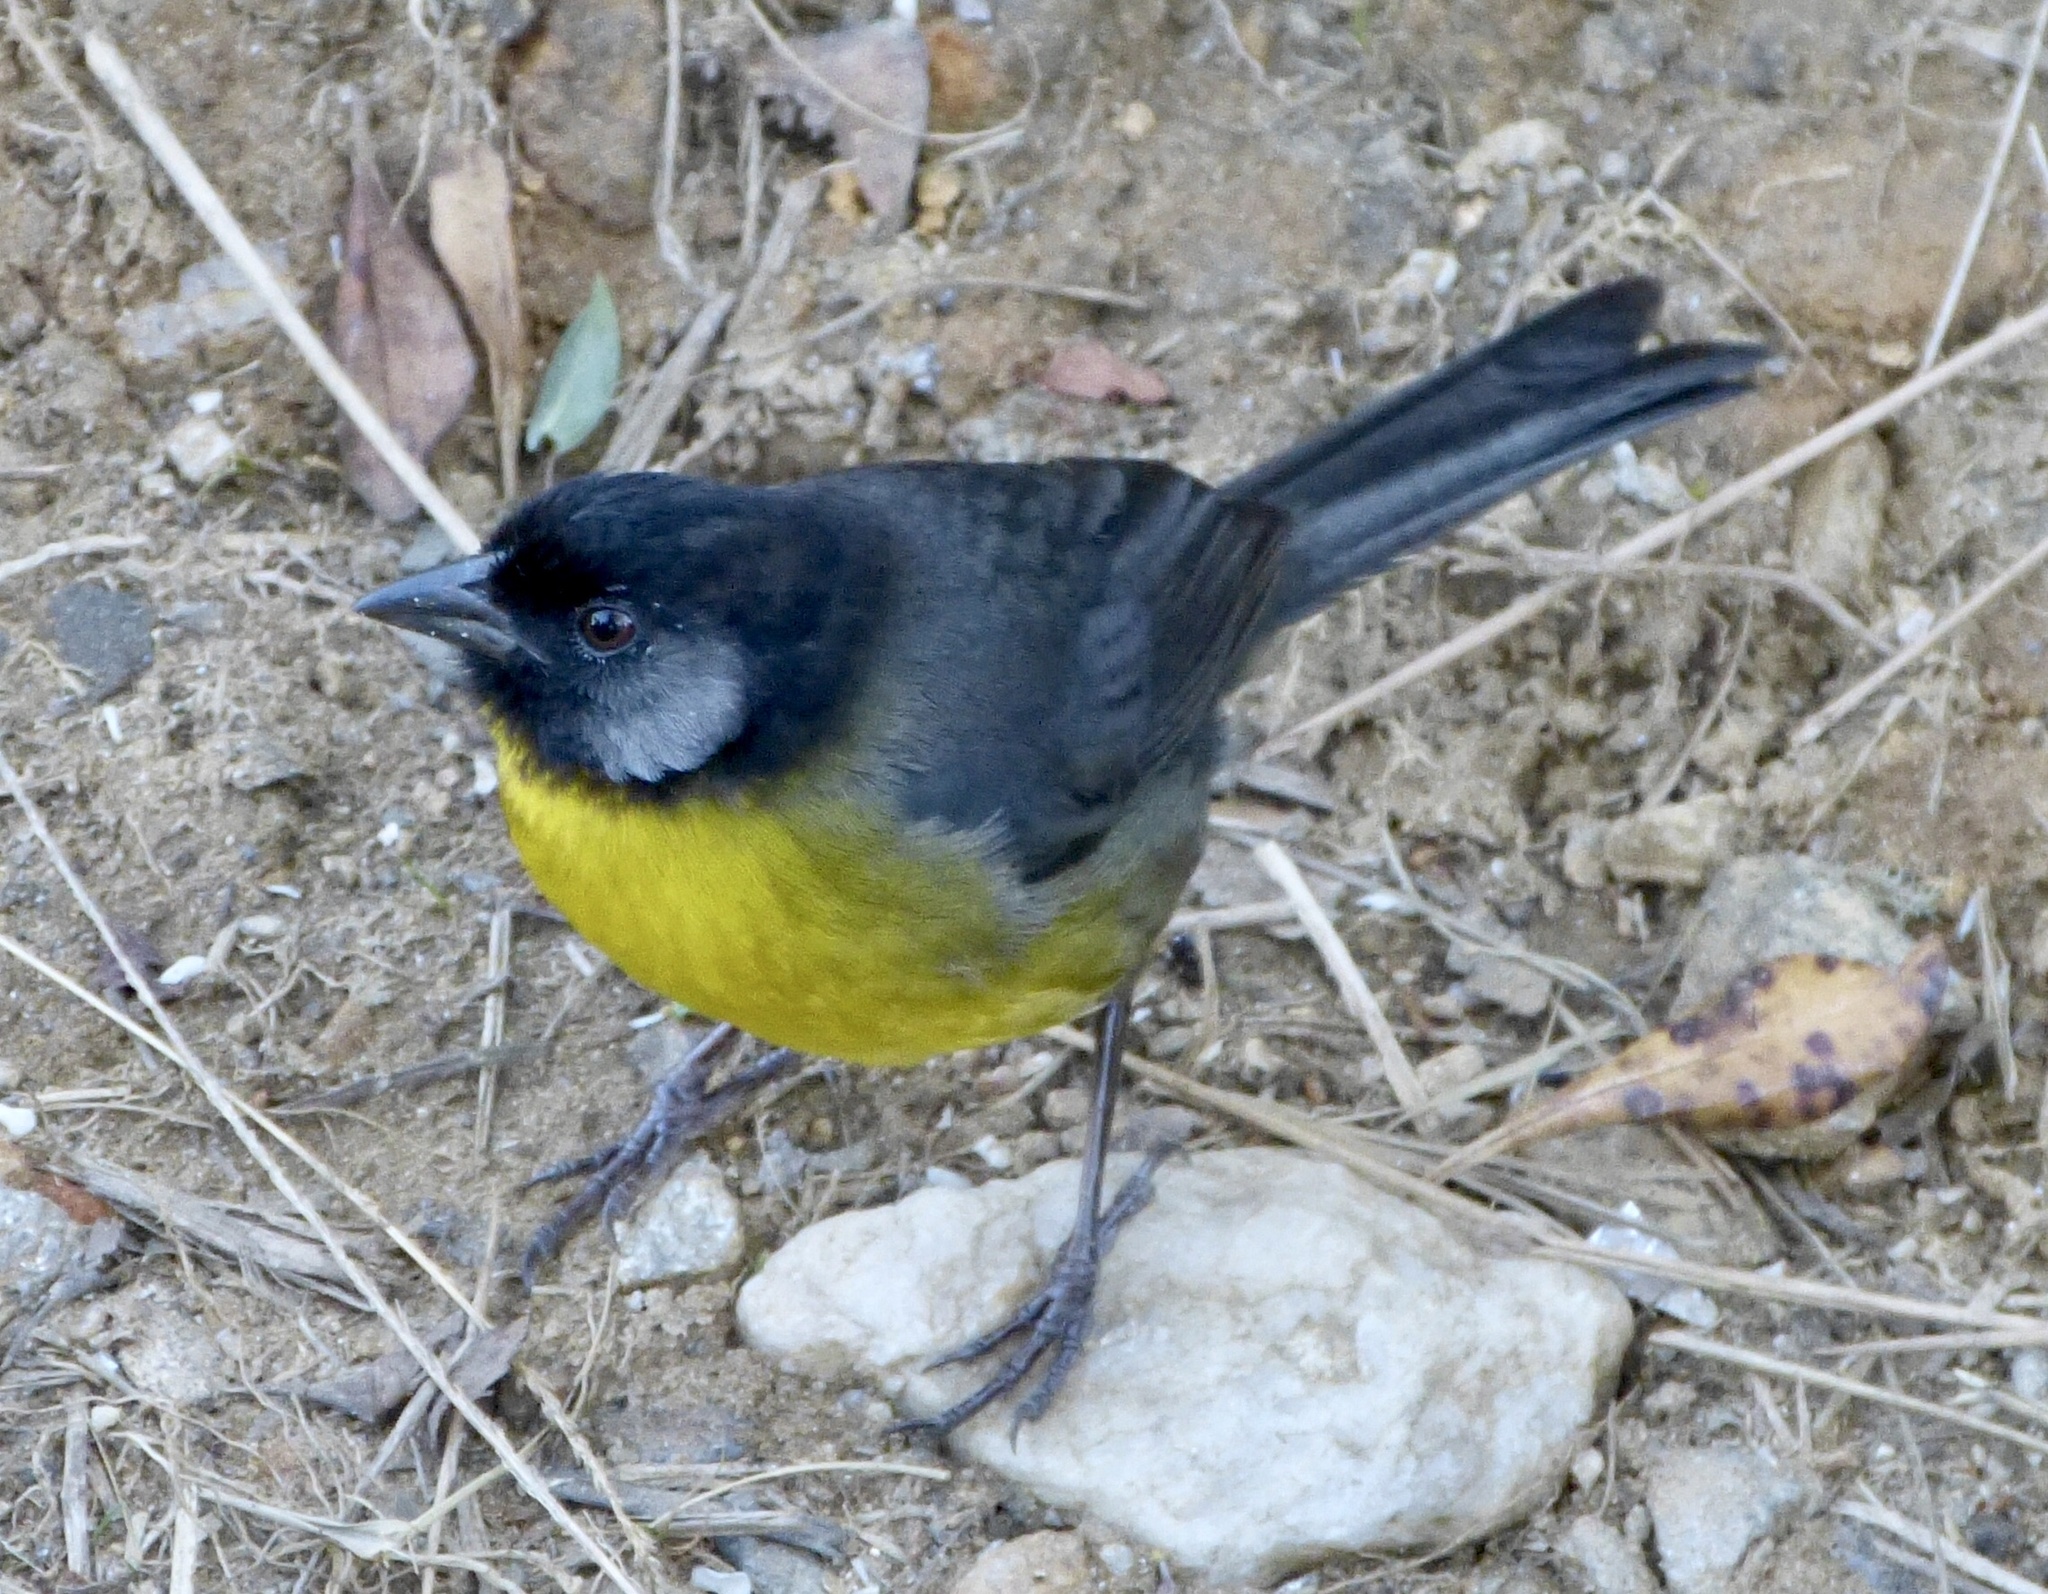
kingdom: Animalia
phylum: Chordata
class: Aves
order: Passeriformes
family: Passerellidae
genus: Atlapetes
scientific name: Atlapetes melanocephalus
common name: Santa marta brush-finch
